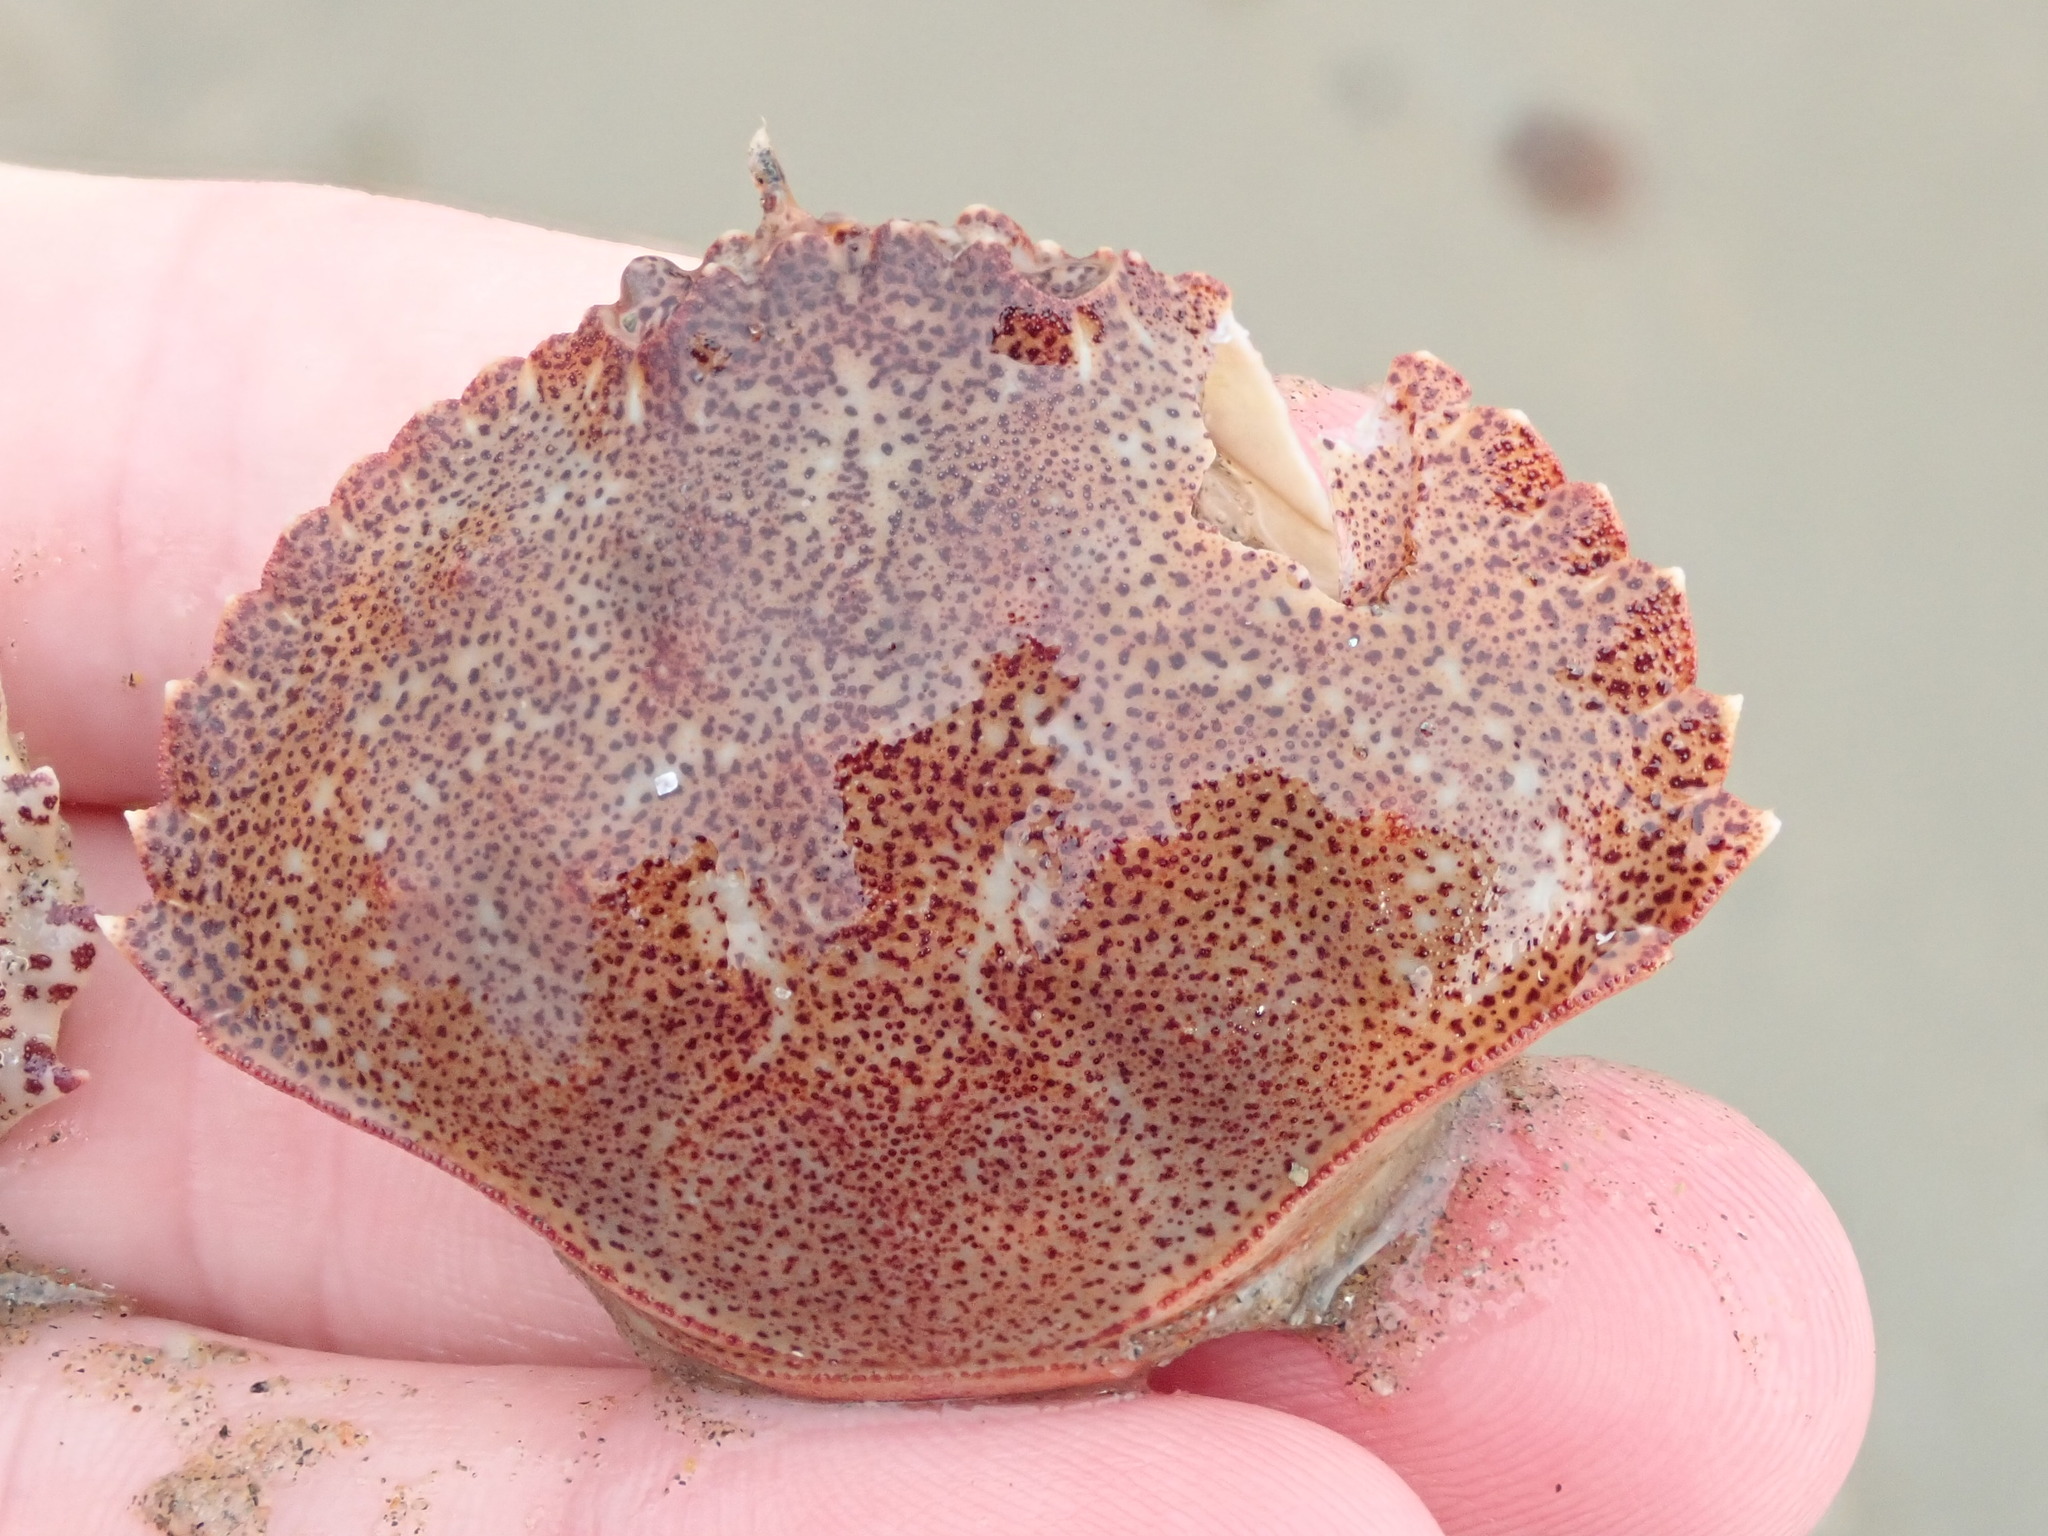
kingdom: Animalia
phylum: Arthropoda
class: Malacostraca
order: Decapoda
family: Cancridae
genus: Cancer
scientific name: Cancer irroratus
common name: Atlantic rock crab
